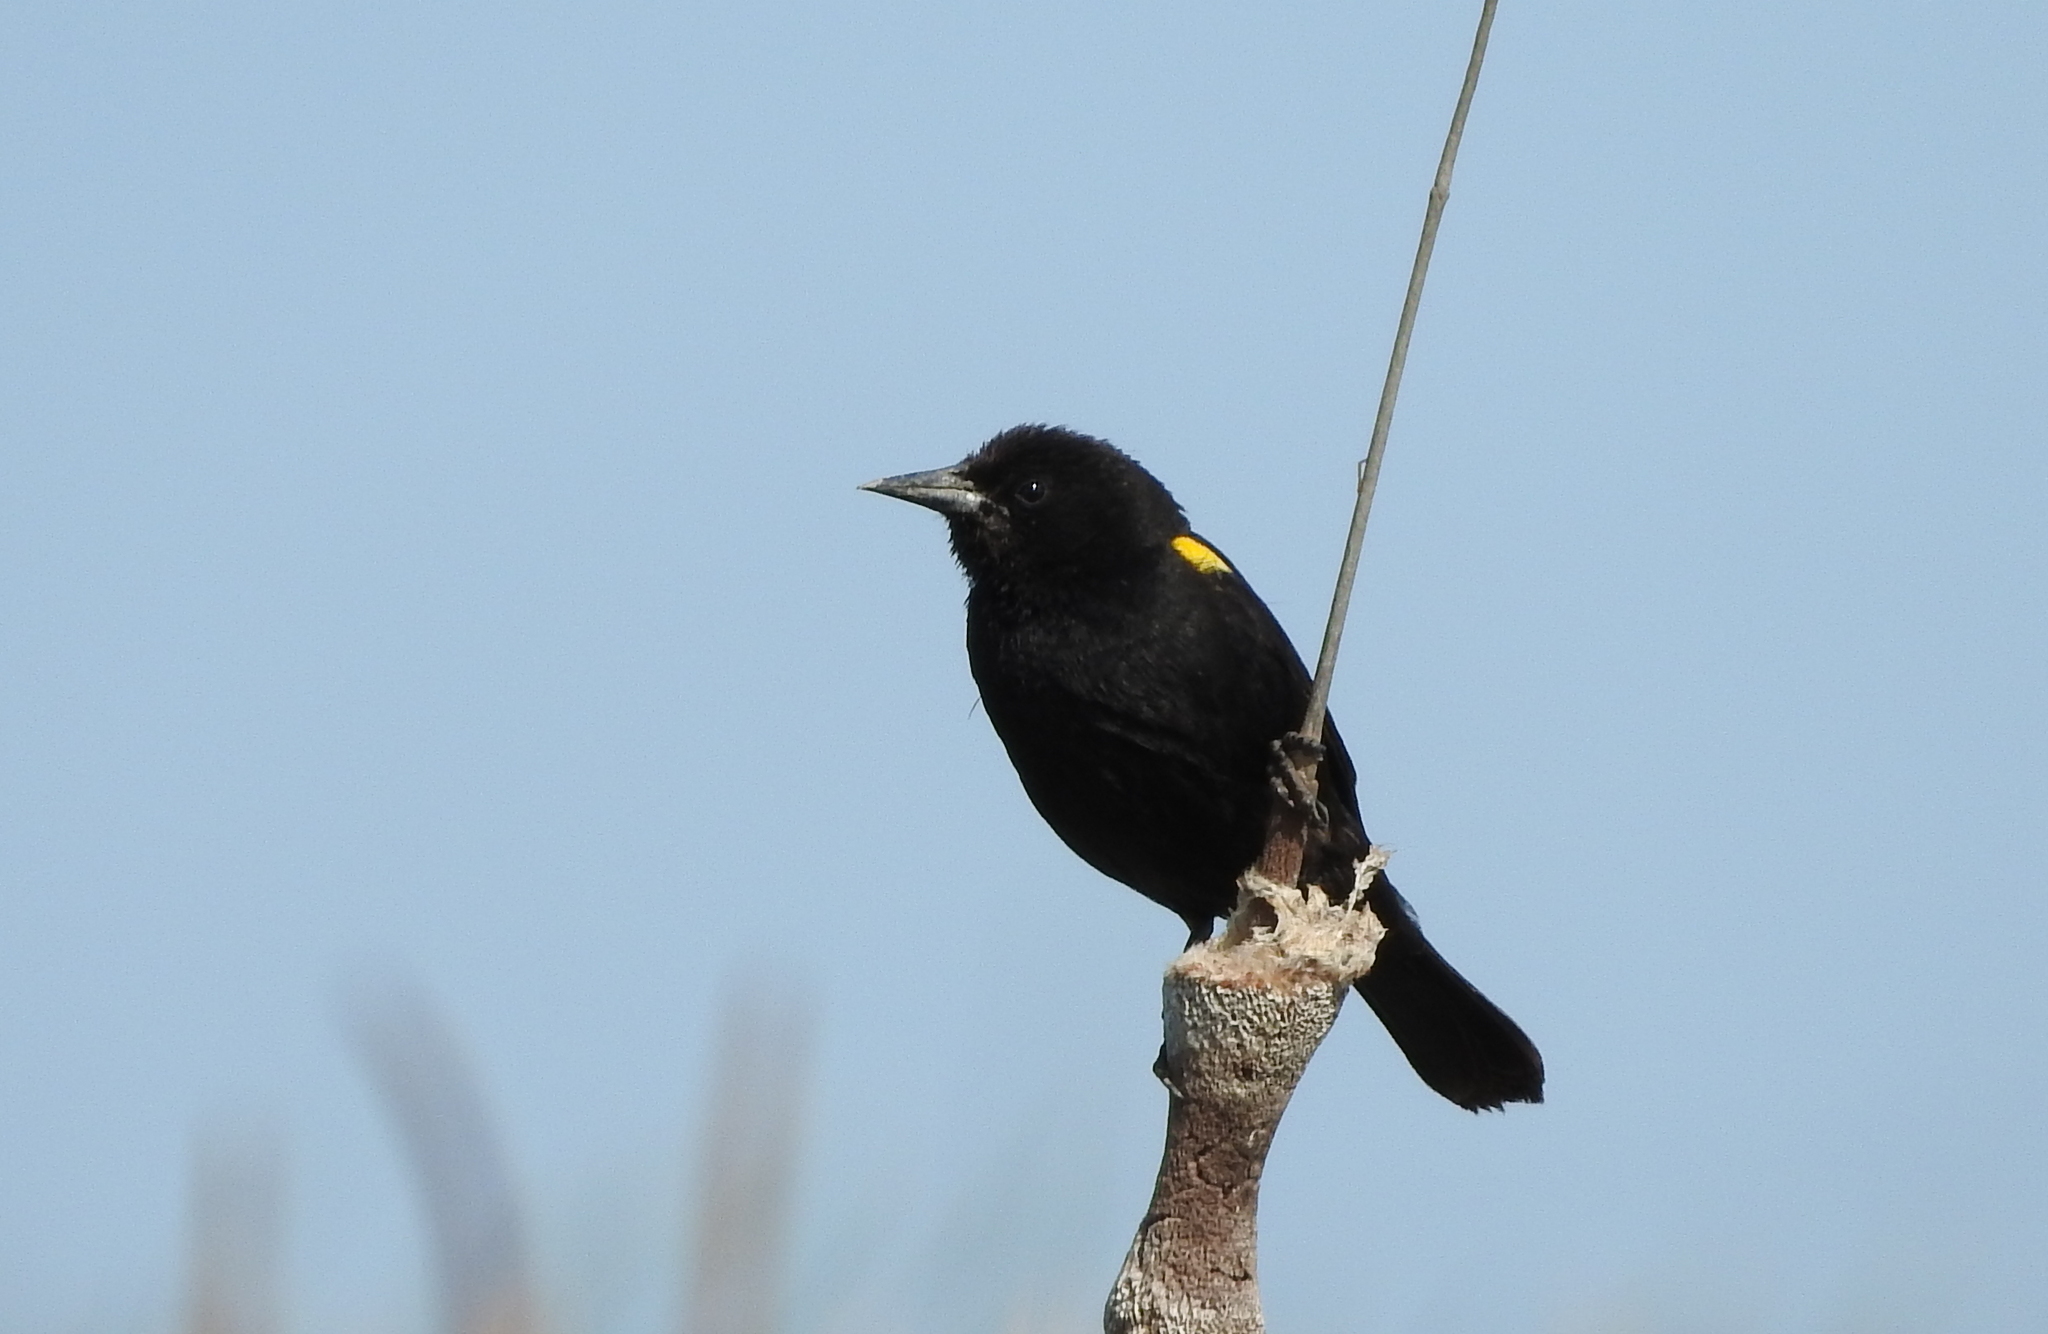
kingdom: Animalia
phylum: Chordata
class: Aves
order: Passeriformes
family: Icteridae
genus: Agelasticus
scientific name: Agelasticus thilius
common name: Yellow-winged blackbird
